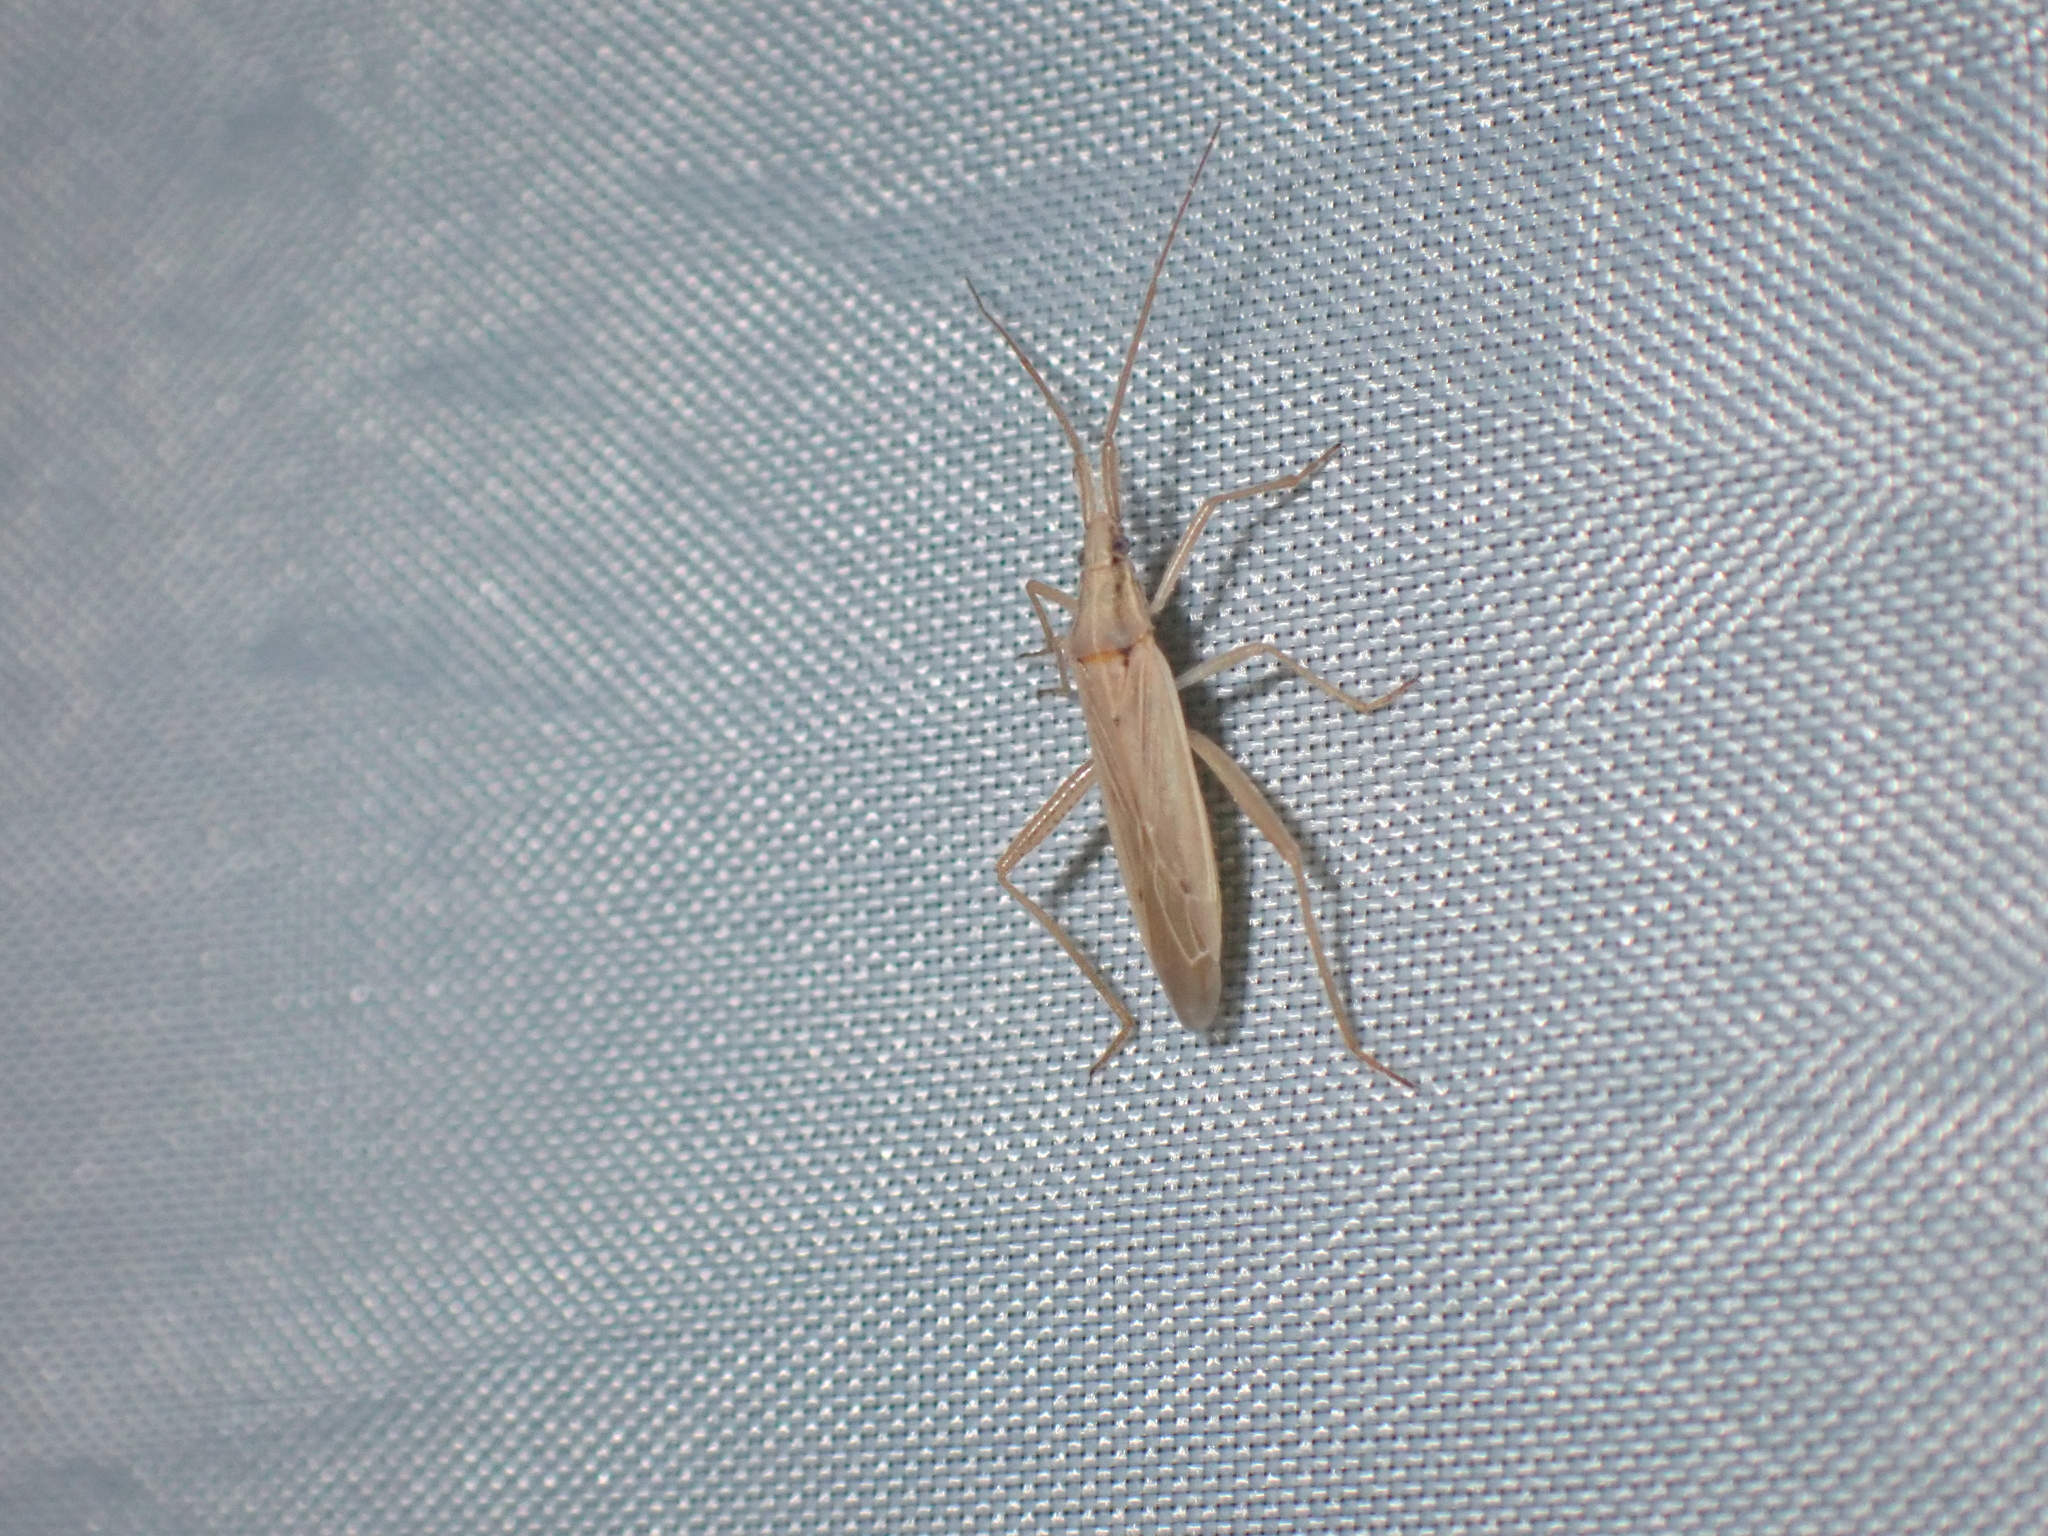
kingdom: Animalia
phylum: Arthropoda
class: Insecta
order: Hemiptera
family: Miridae
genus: Stenodema
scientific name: Stenodema laevigata
